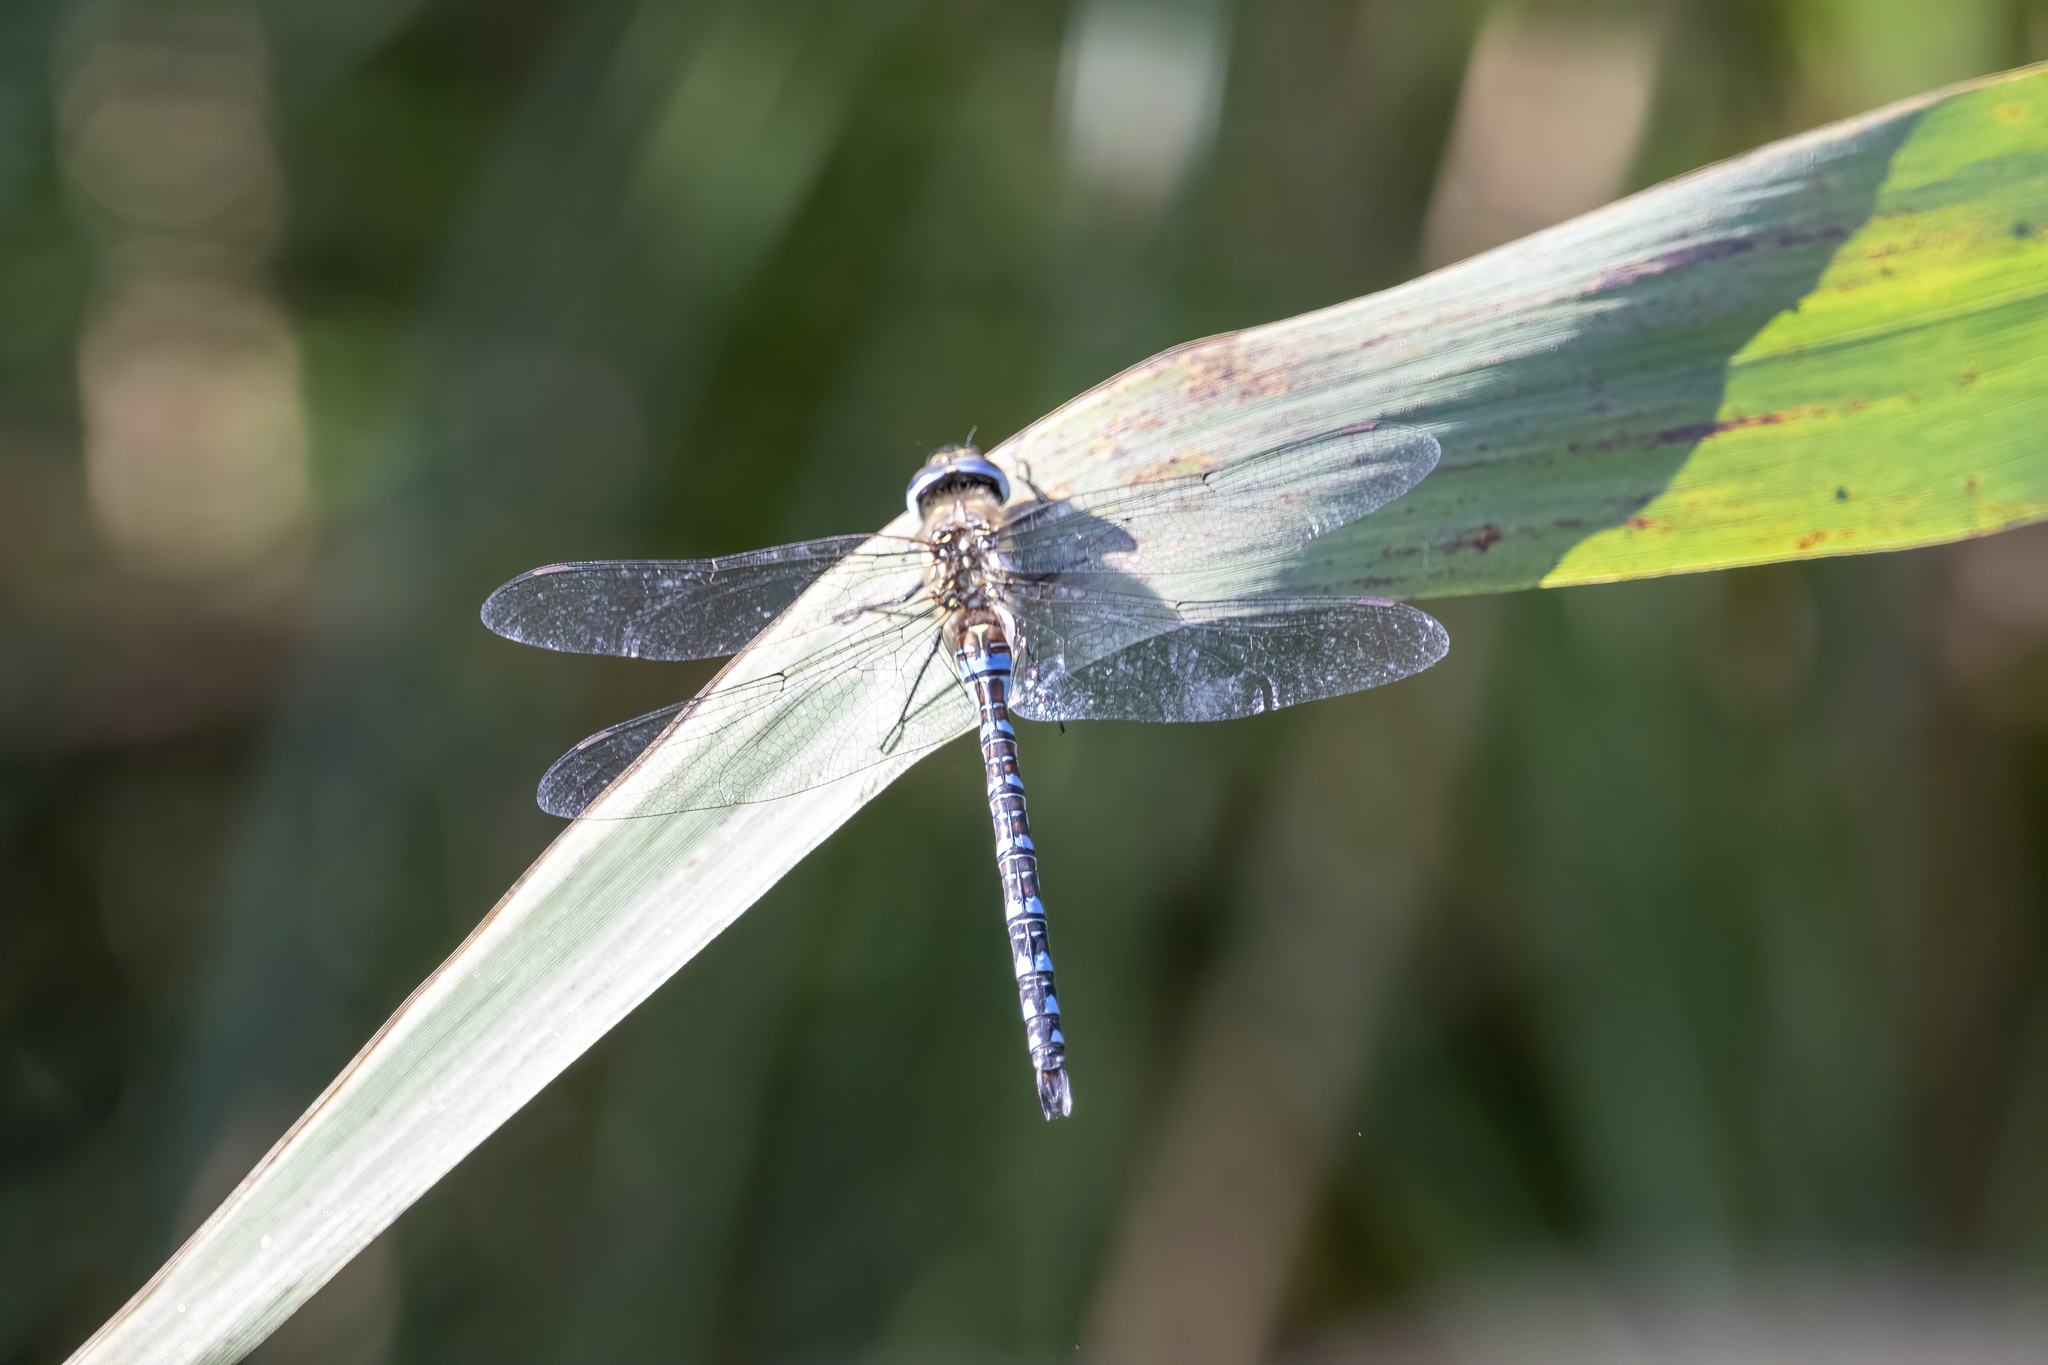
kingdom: Animalia
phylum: Arthropoda
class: Insecta
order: Odonata
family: Aeshnidae
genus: Aeshna
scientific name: Aeshna mixta
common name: Migrant hawker
